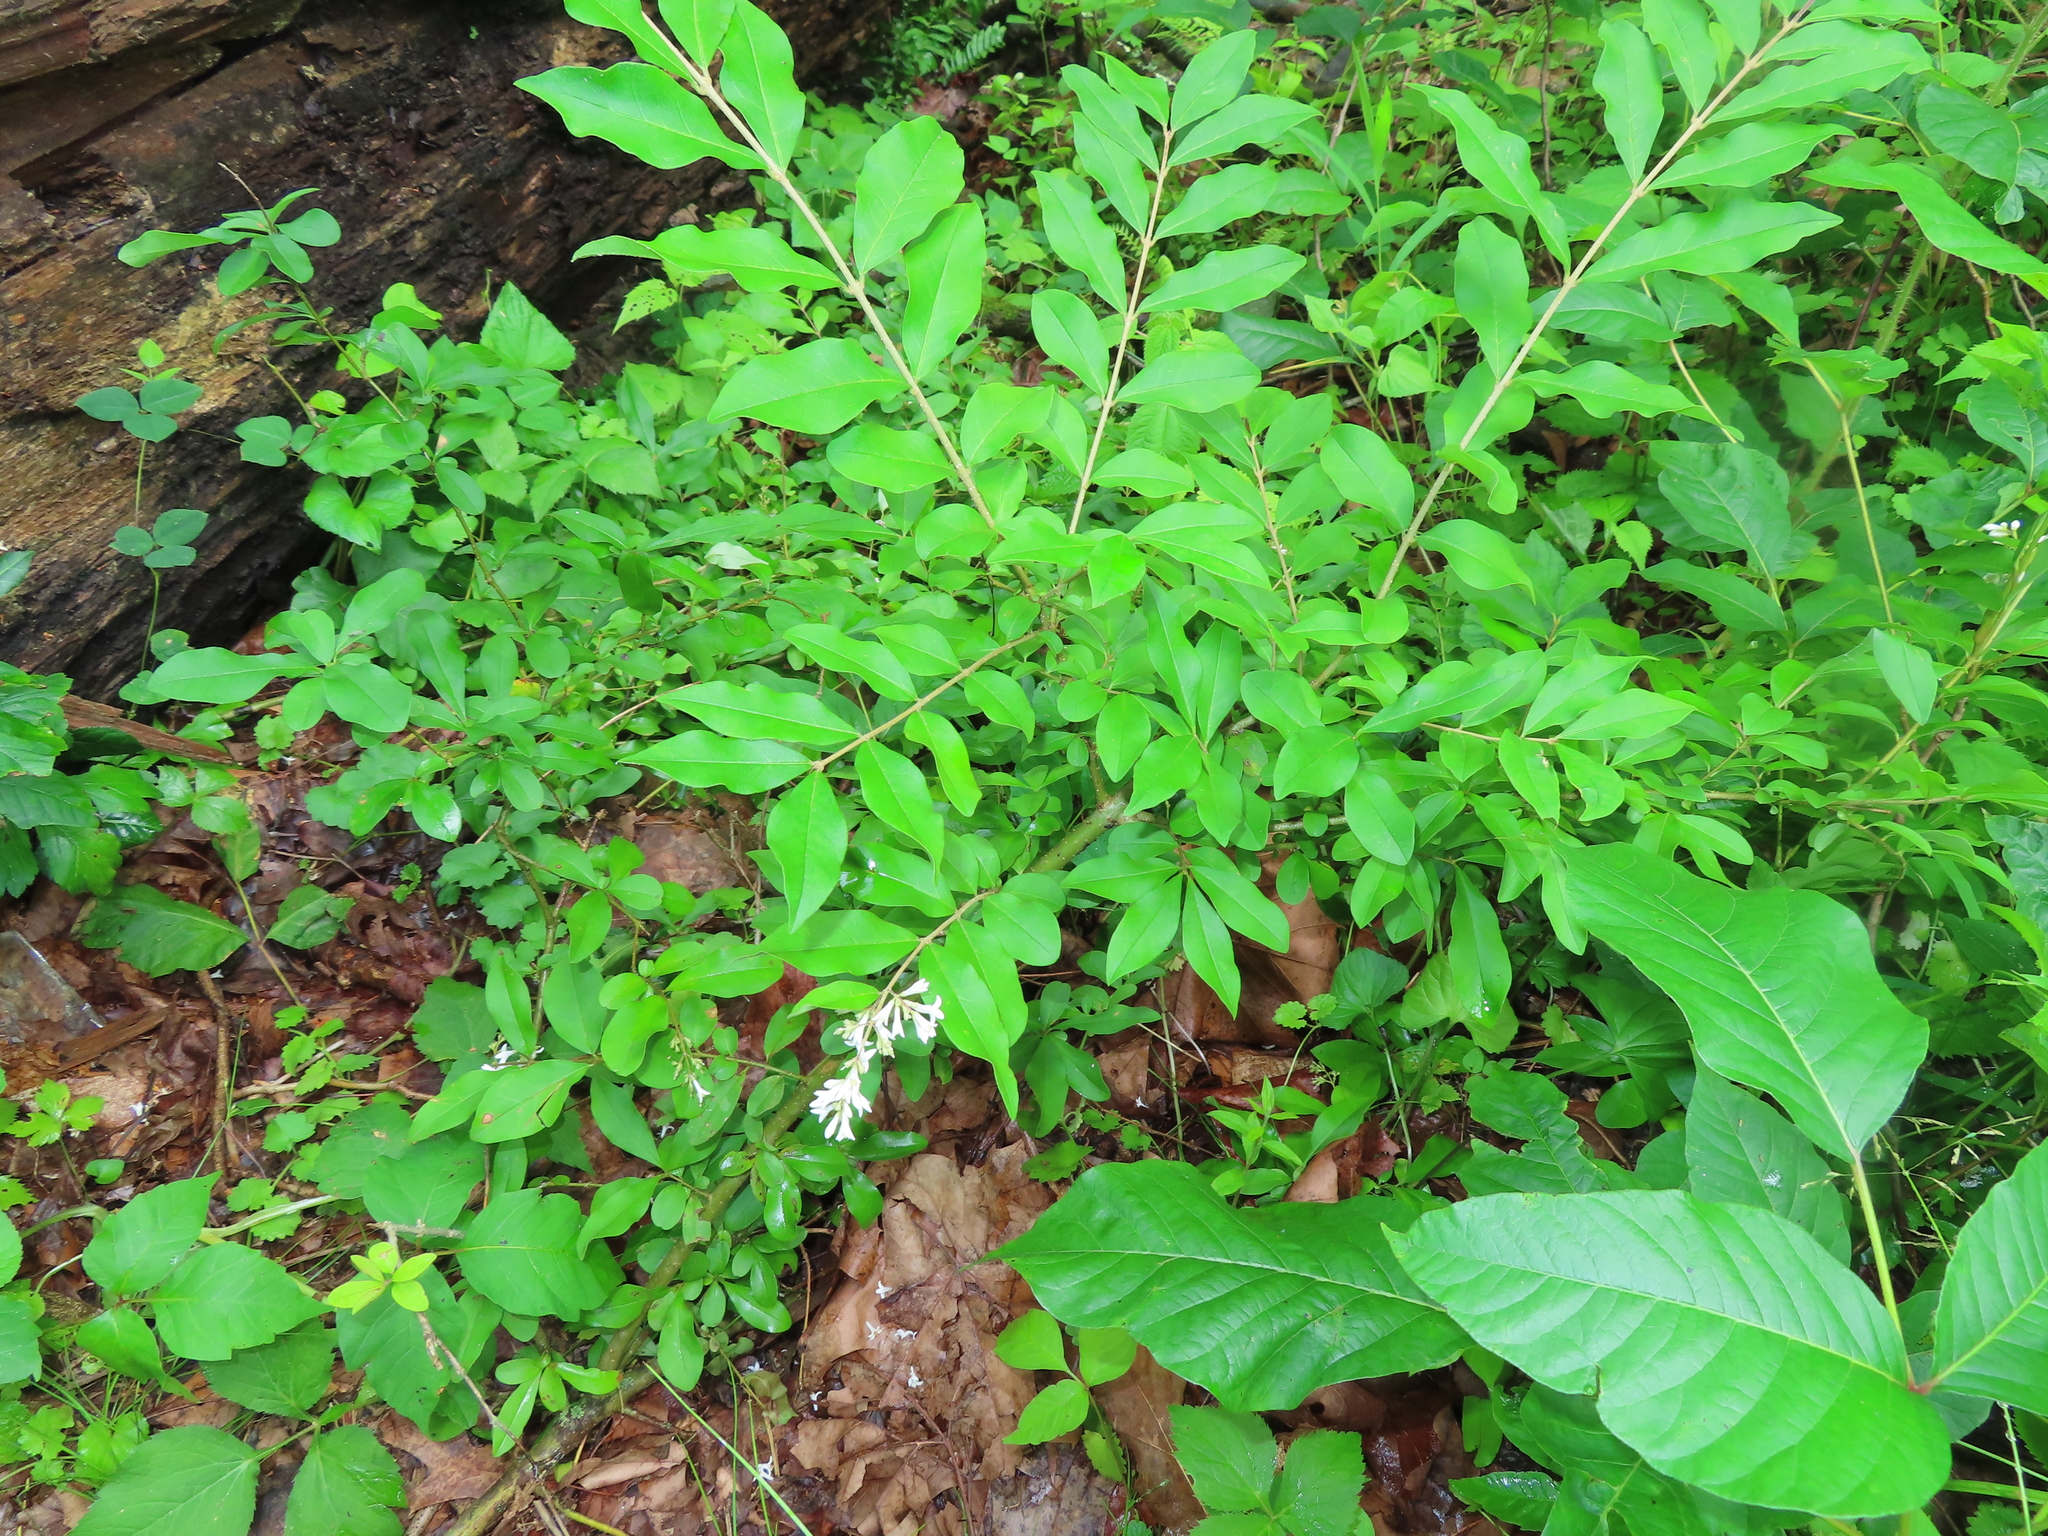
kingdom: Plantae
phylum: Tracheophyta
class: Magnoliopsida
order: Lamiales
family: Oleaceae
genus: Ligustrum
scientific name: Ligustrum obtusifolium
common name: Border privet
